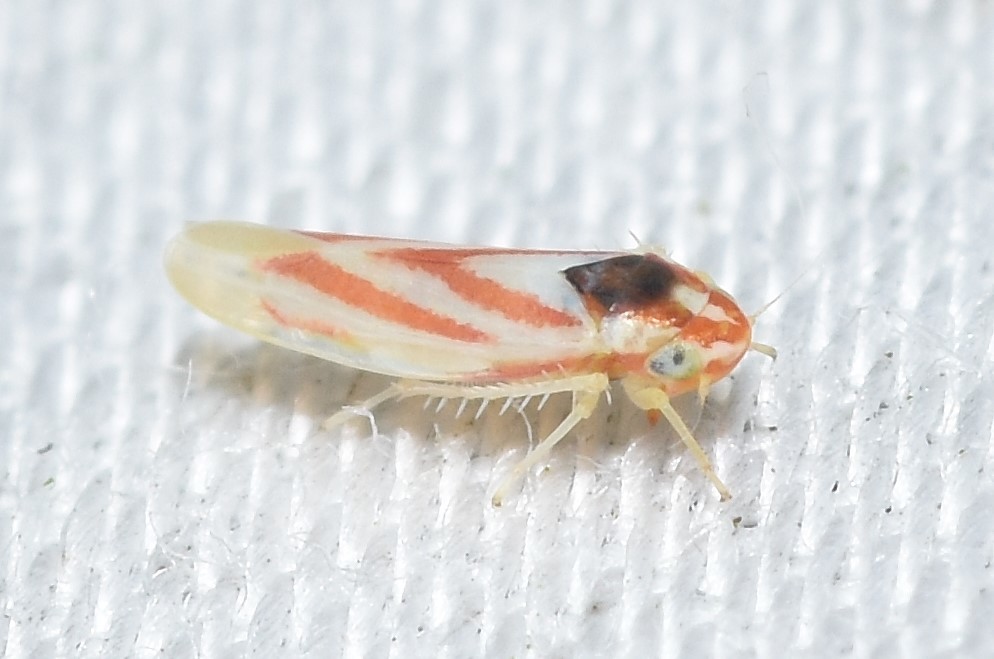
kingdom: Animalia
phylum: Arthropoda
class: Insecta
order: Hemiptera
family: Cicadellidae
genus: Erythridula
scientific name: Erythridula noeva
